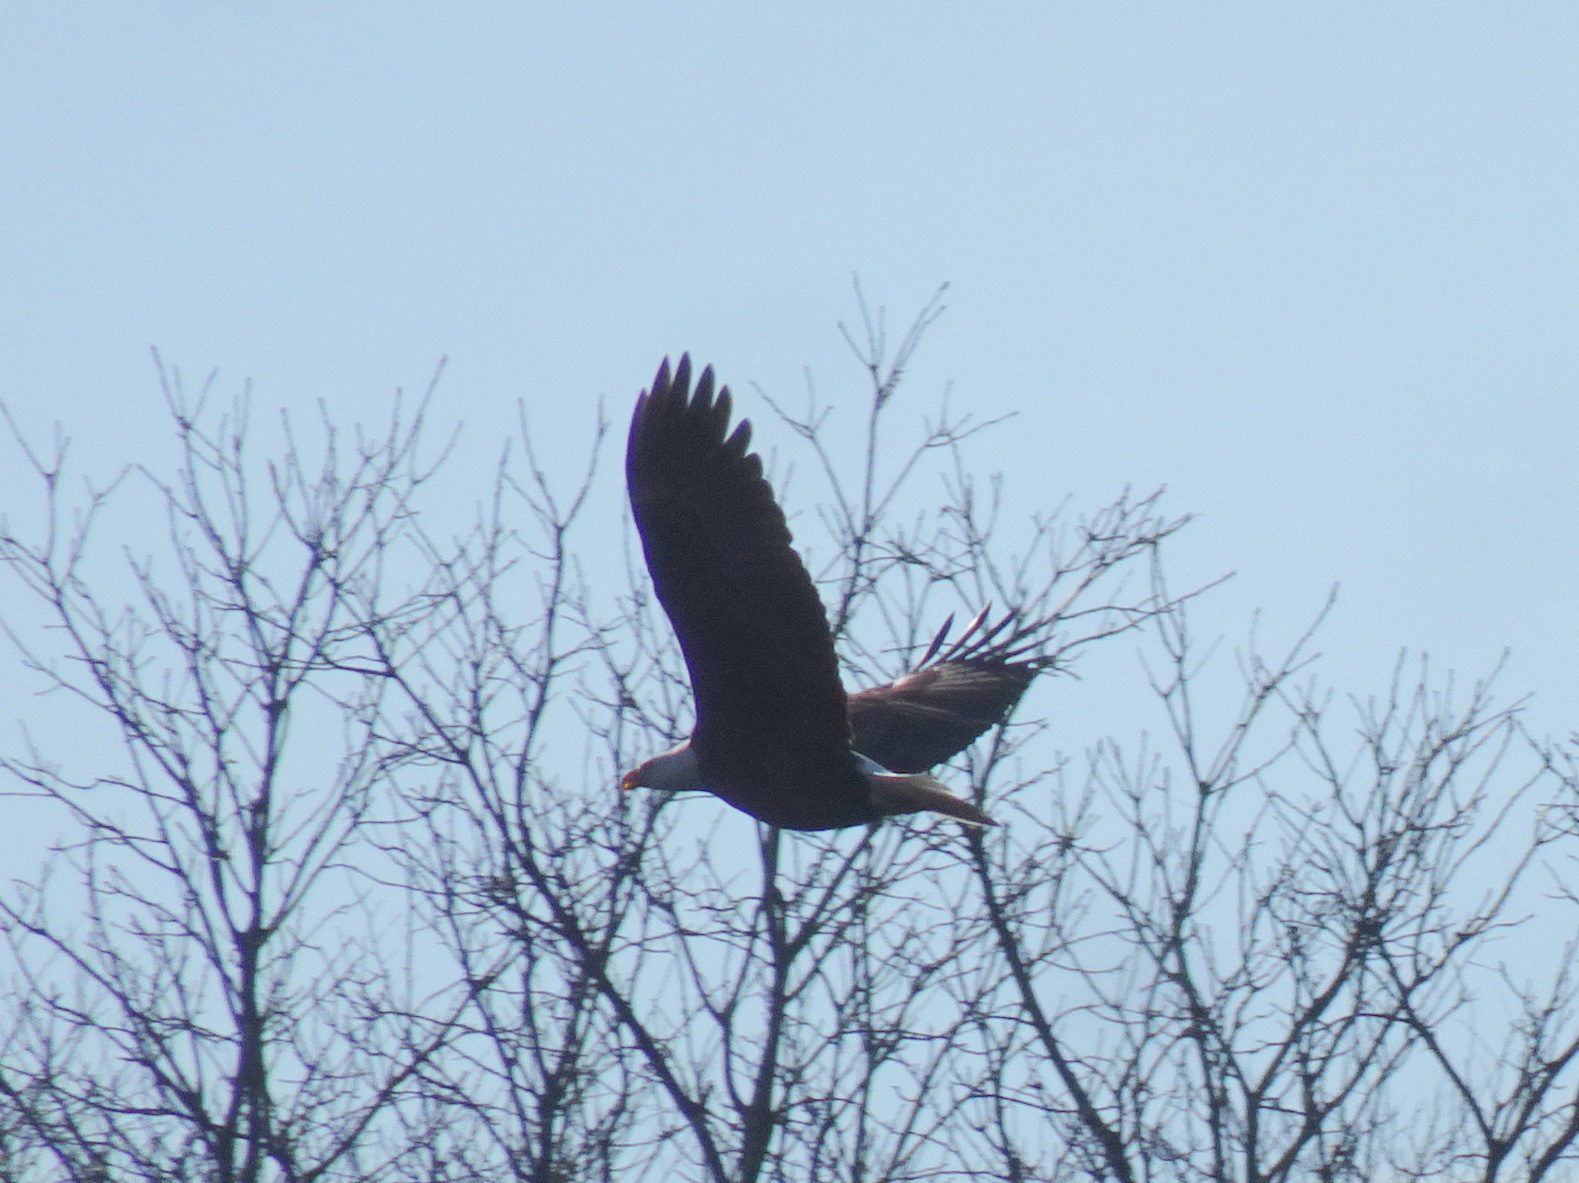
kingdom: Animalia
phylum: Chordata
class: Aves
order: Accipitriformes
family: Accipitridae
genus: Haliaeetus
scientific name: Haliaeetus leucocephalus
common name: Bald eagle
